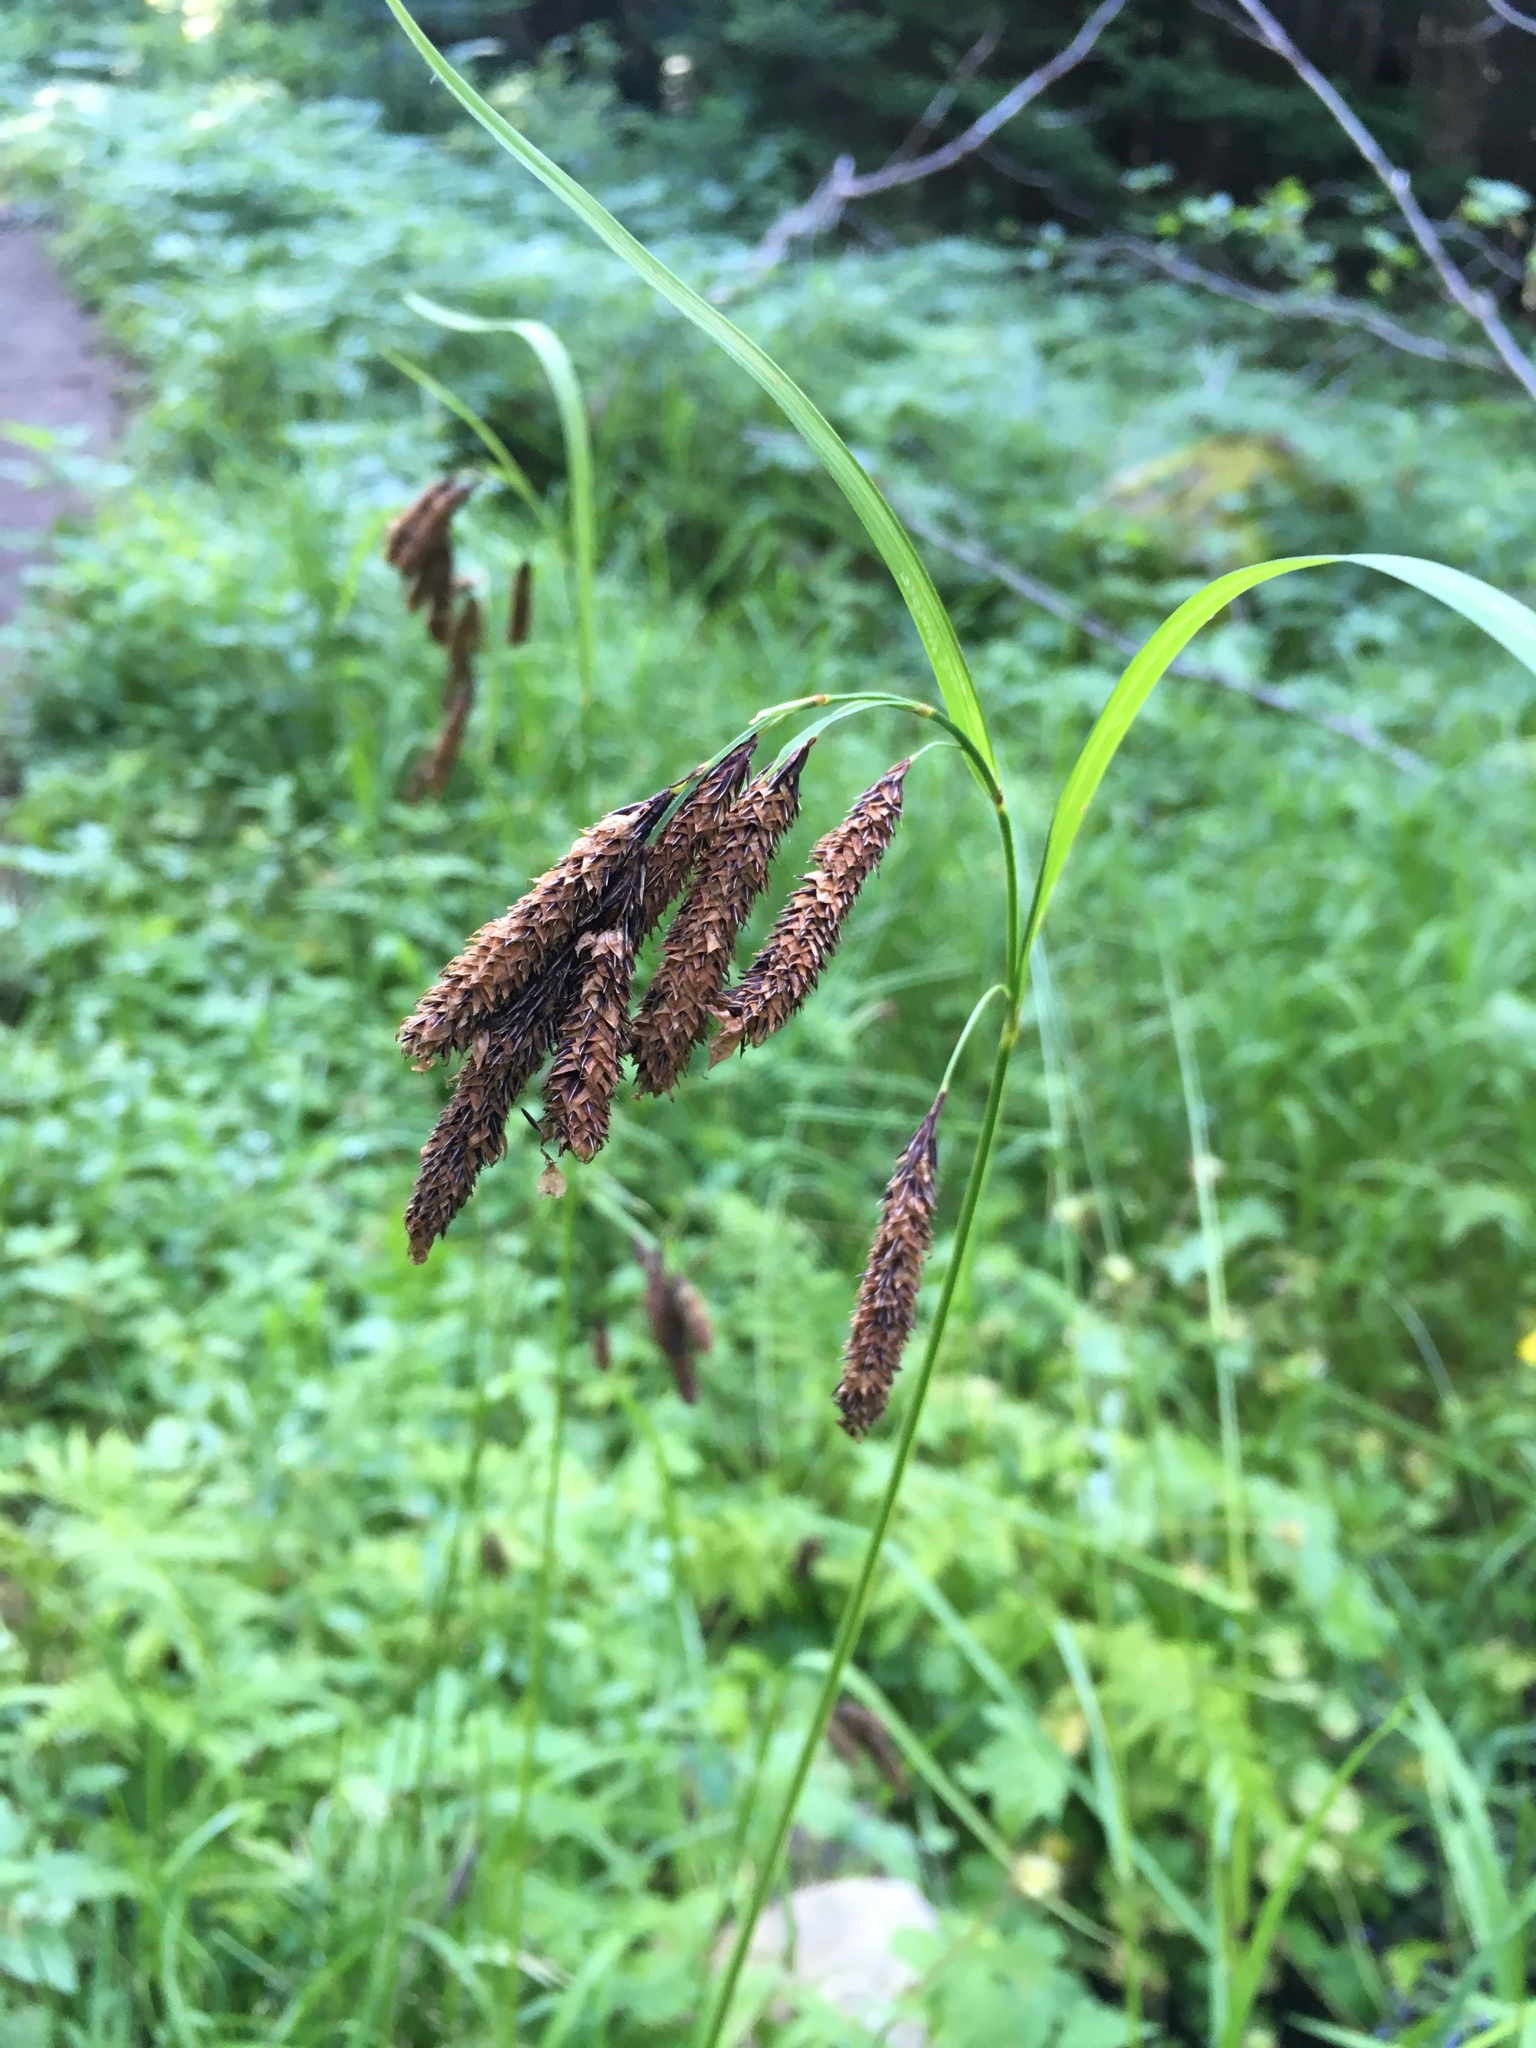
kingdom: Plantae
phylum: Tracheophyta
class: Liliopsida
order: Poales
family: Cyperaceae
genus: Carex
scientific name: Carex mertensii
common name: Mertens' sedge
